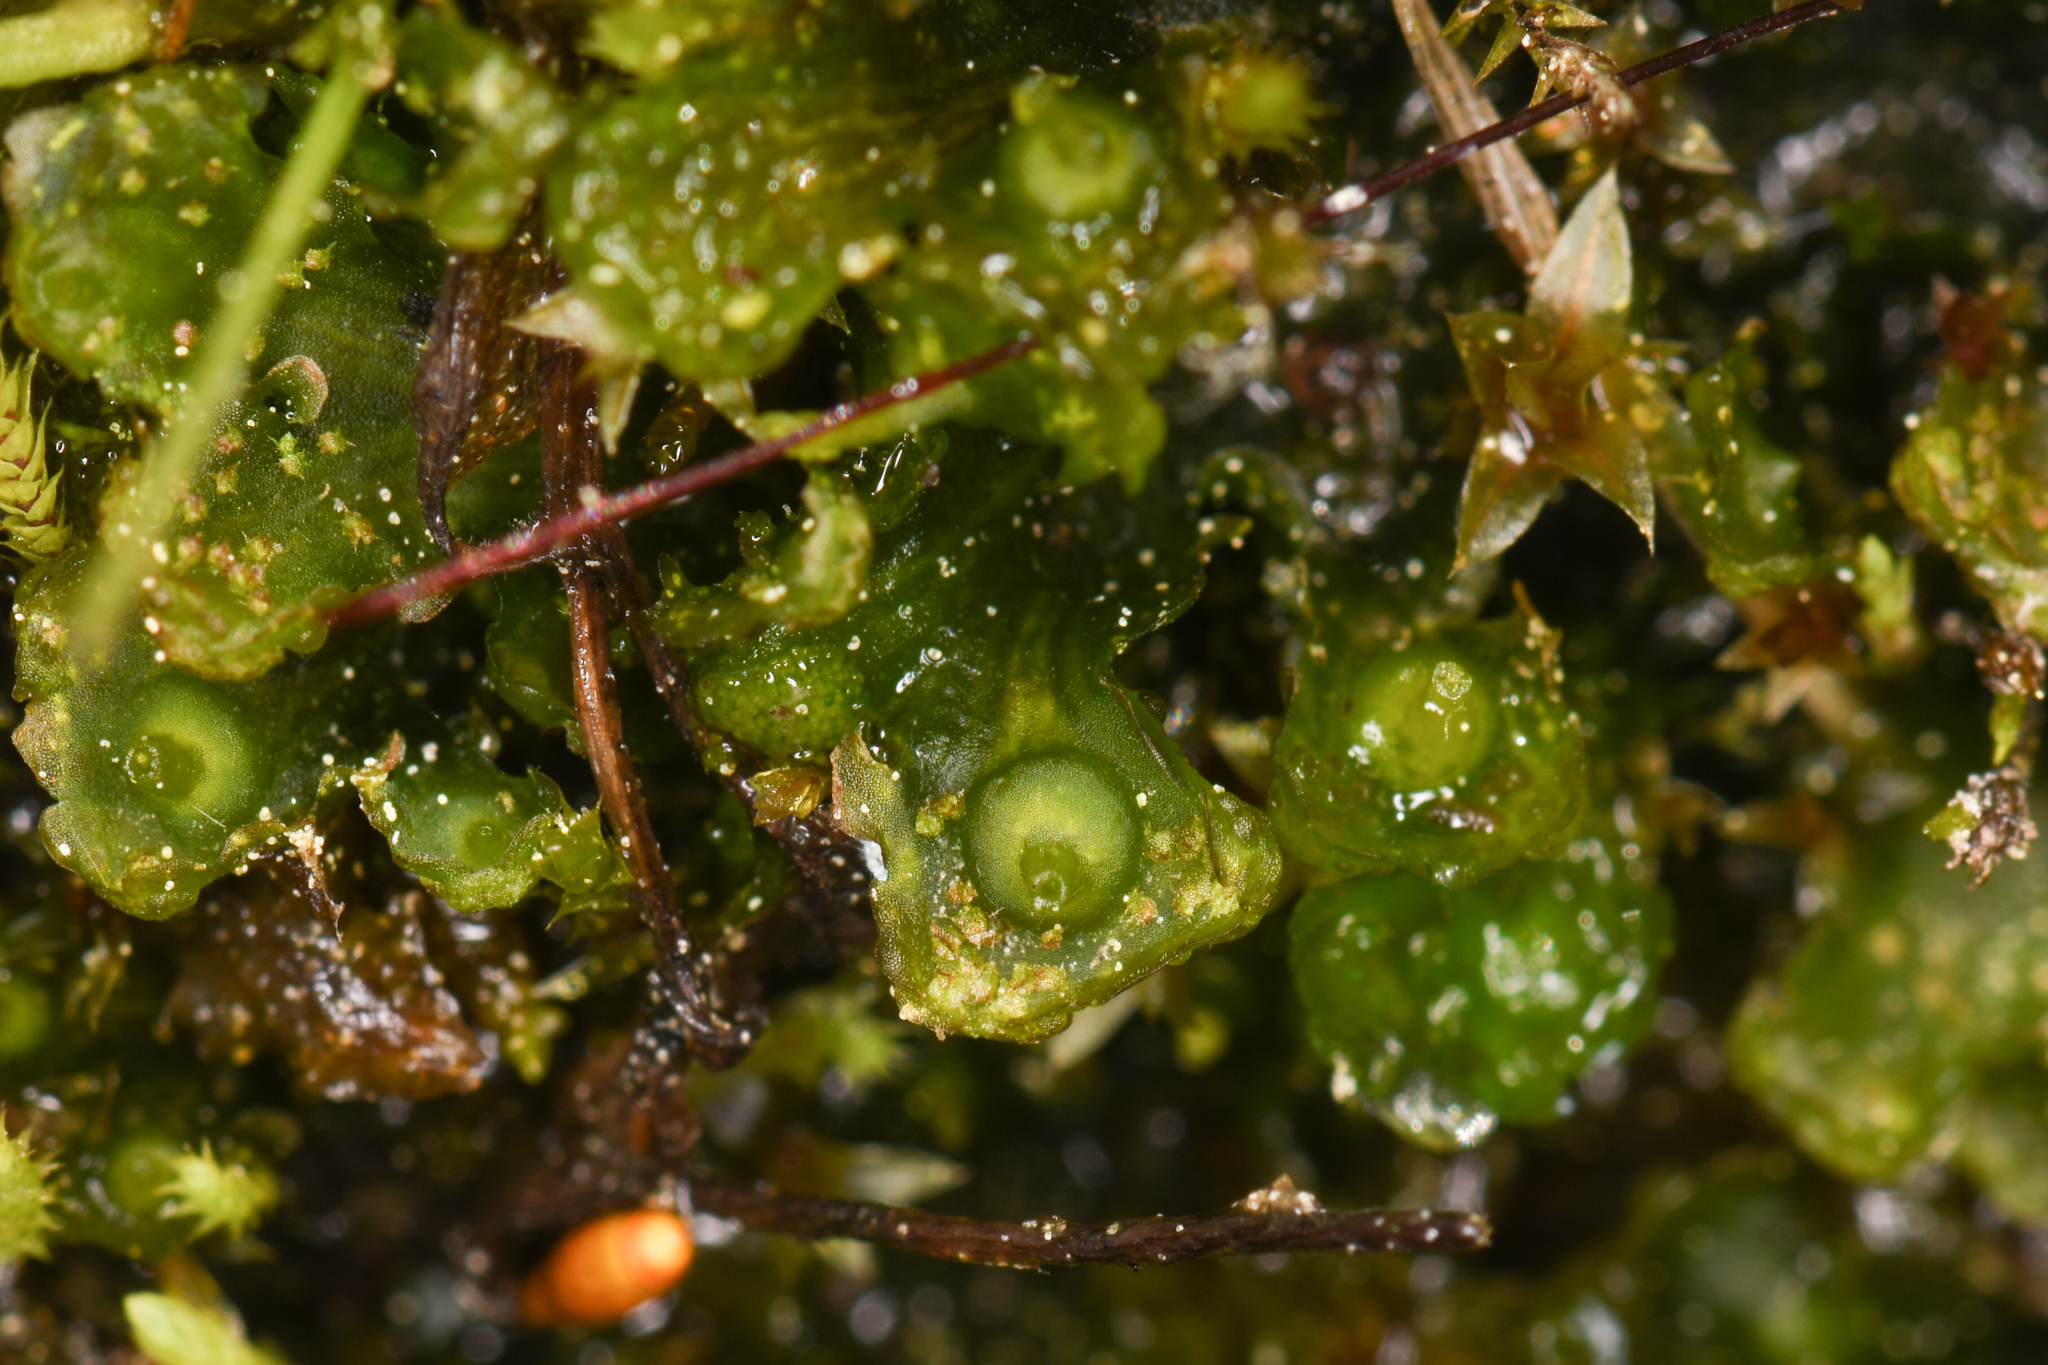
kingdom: Plantae
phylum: Marchantiophyta
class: Marchantiopsida
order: Blasiales
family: Blasiaceae
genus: Blasia
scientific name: Blasia pusilla
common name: Common kettlewort
